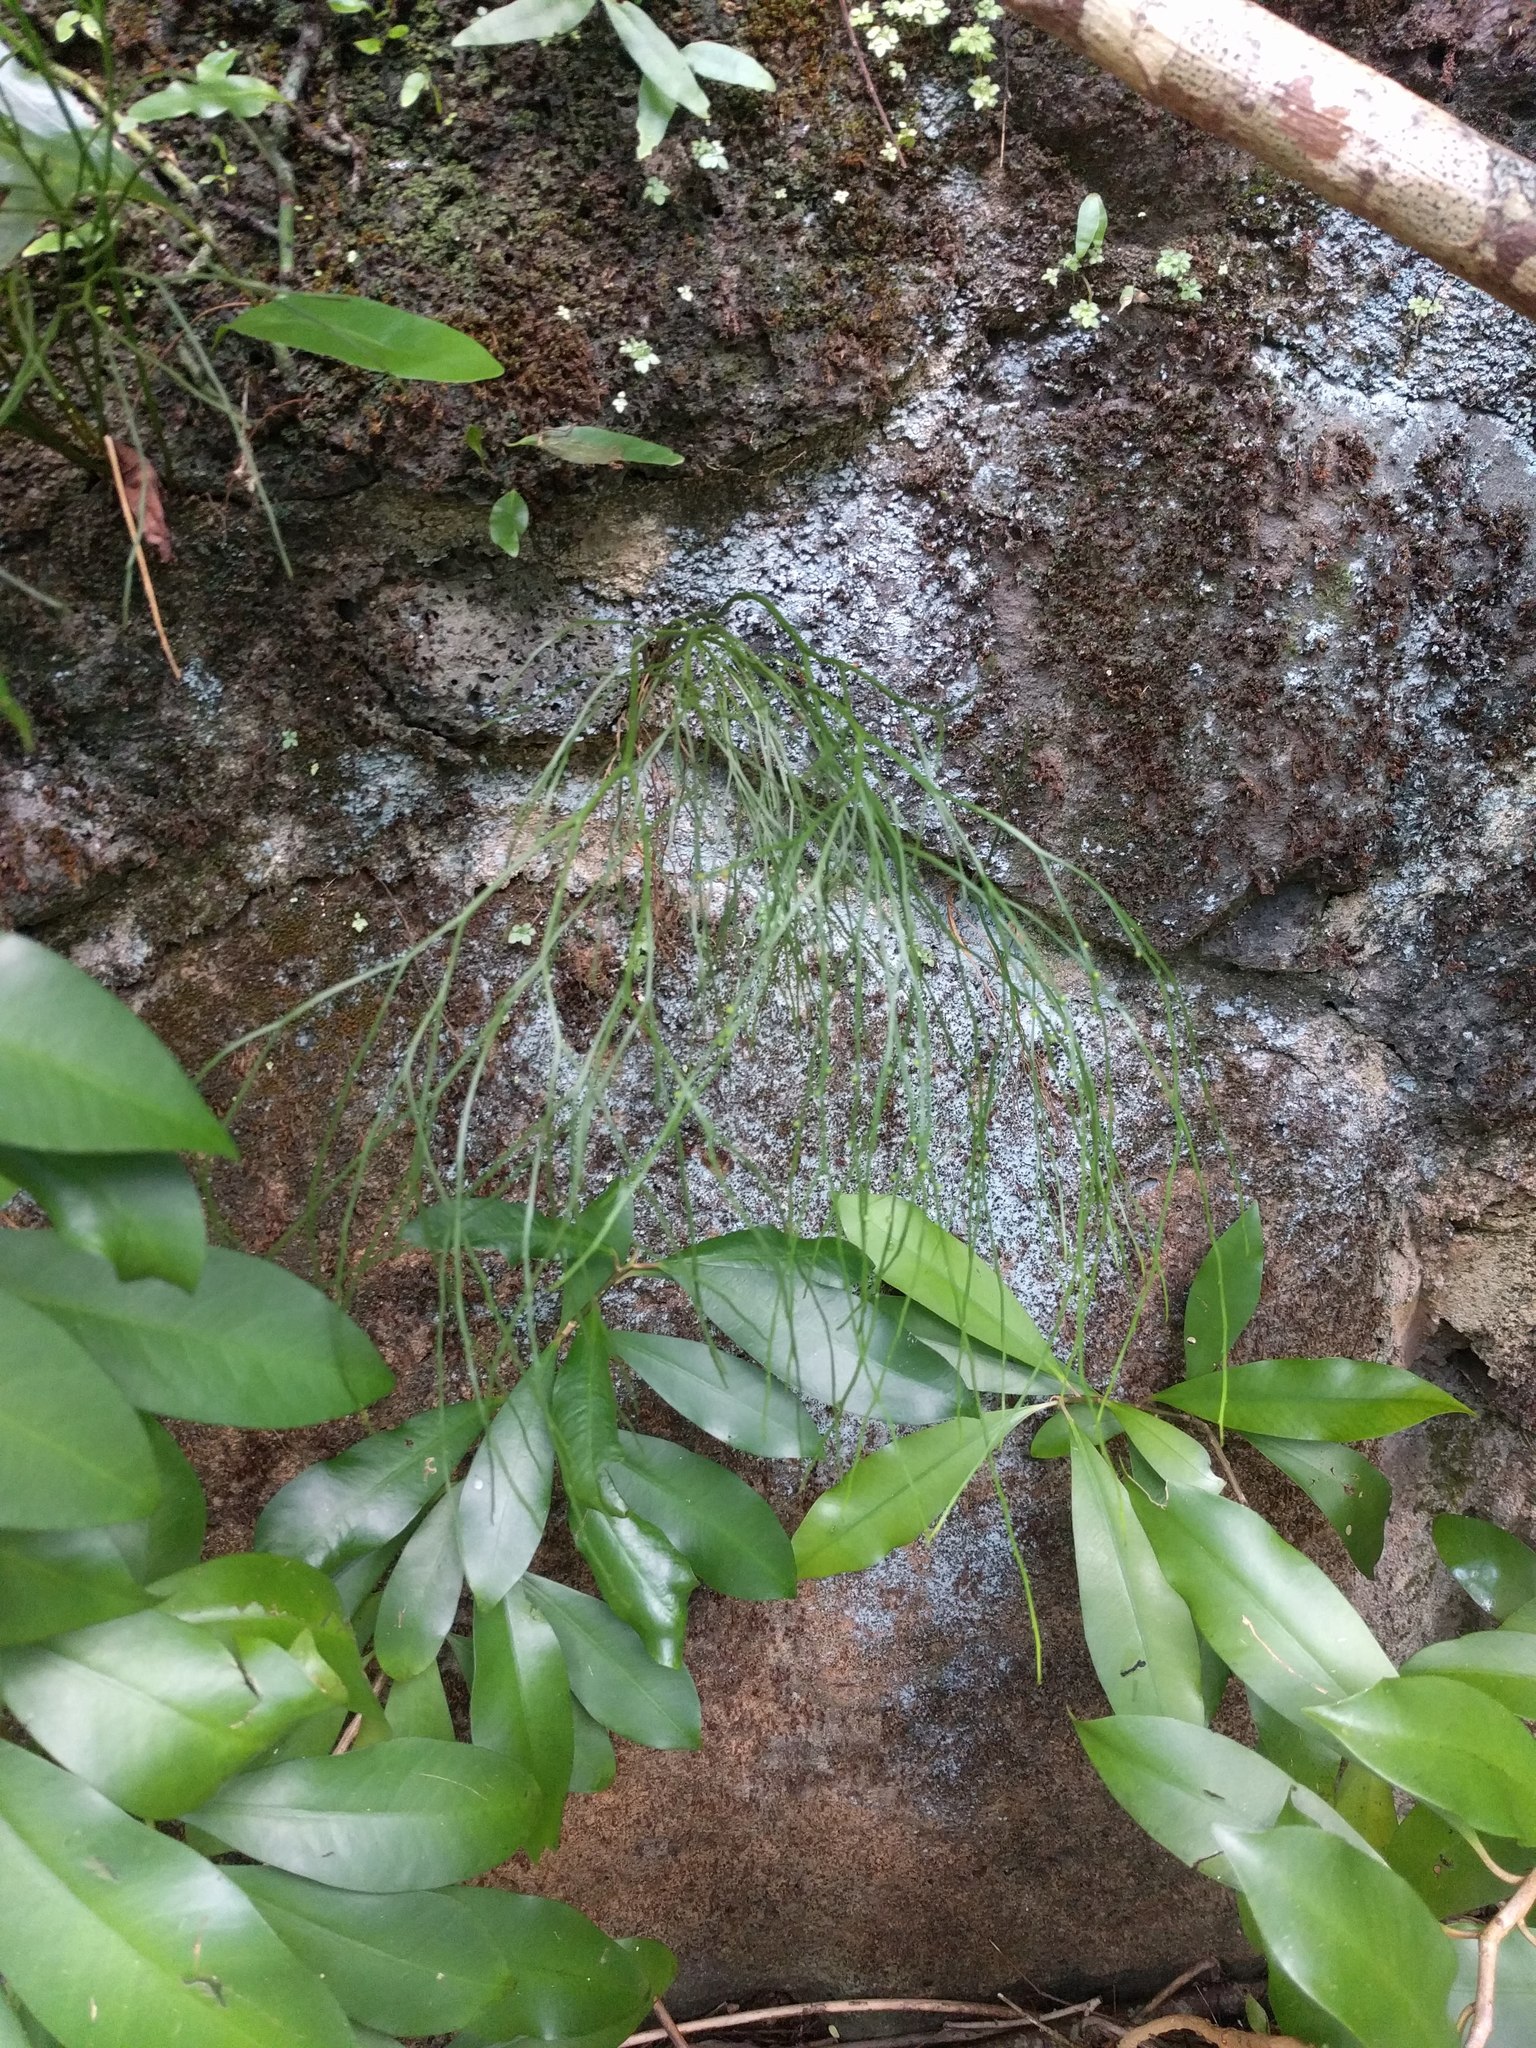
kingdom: Plantae
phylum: Tracheophyta
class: Polypodiopsida
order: Psilotales
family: Psilotaceae
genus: Psilotum
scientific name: Psilotum nudum
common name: Skeleton fork fern
